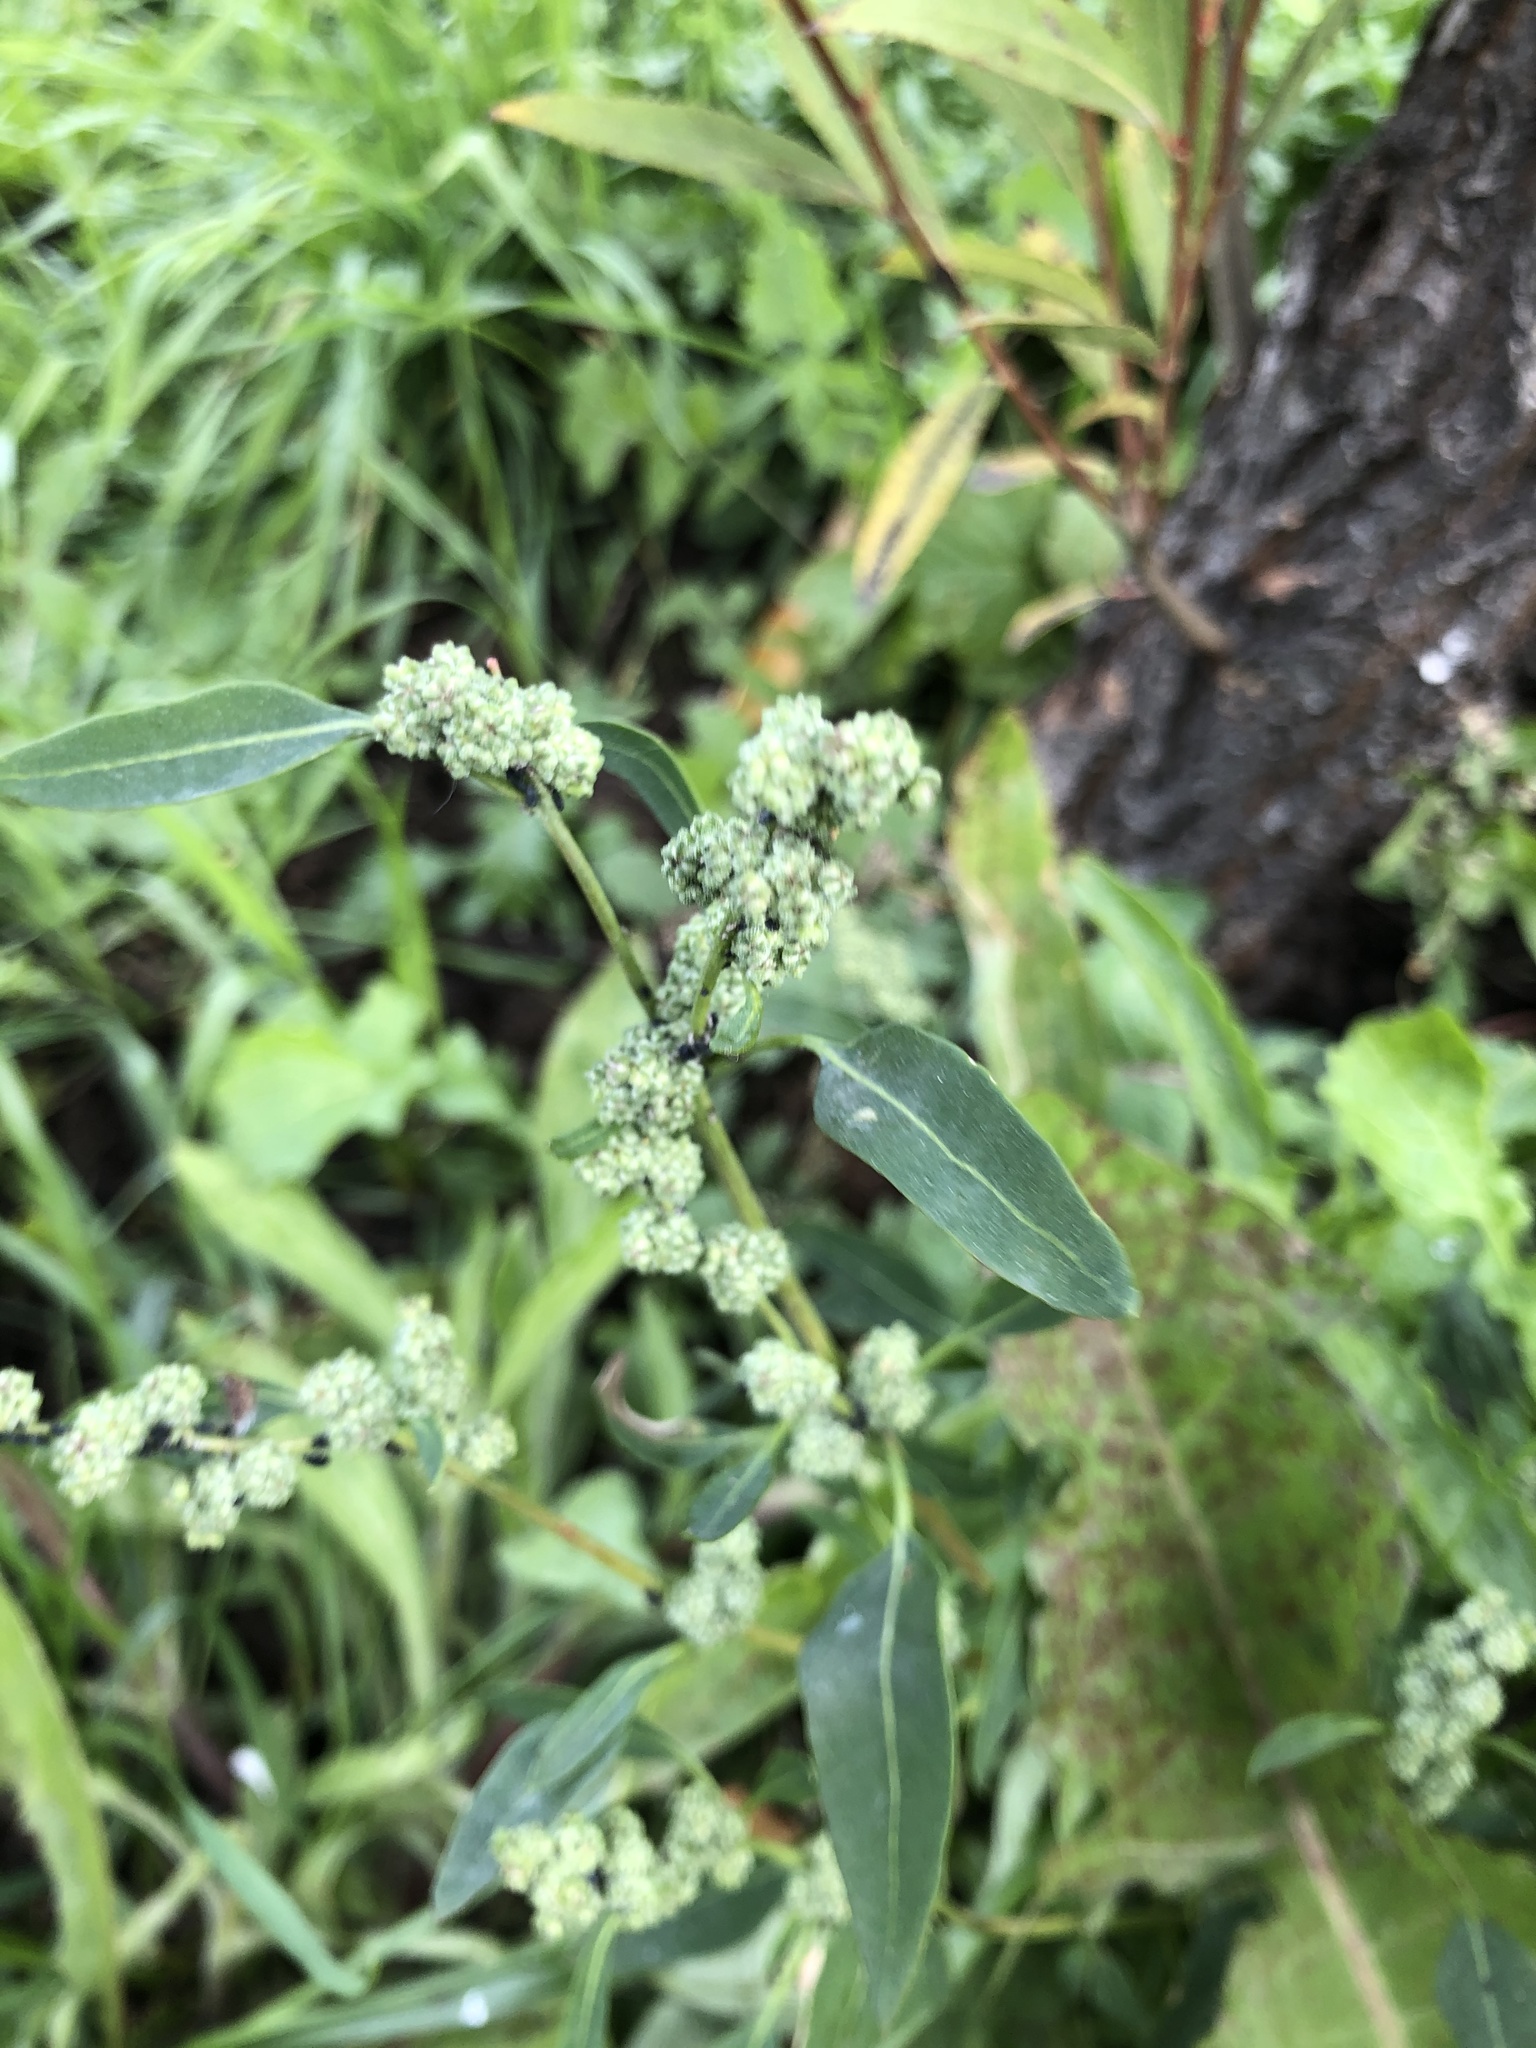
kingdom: Plantae
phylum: Tracheophyta
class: Magnoliopsida
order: Caryophyllales
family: Amaranthaceae
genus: Chenopodium
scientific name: Chenopodium album
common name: Fat-hen
